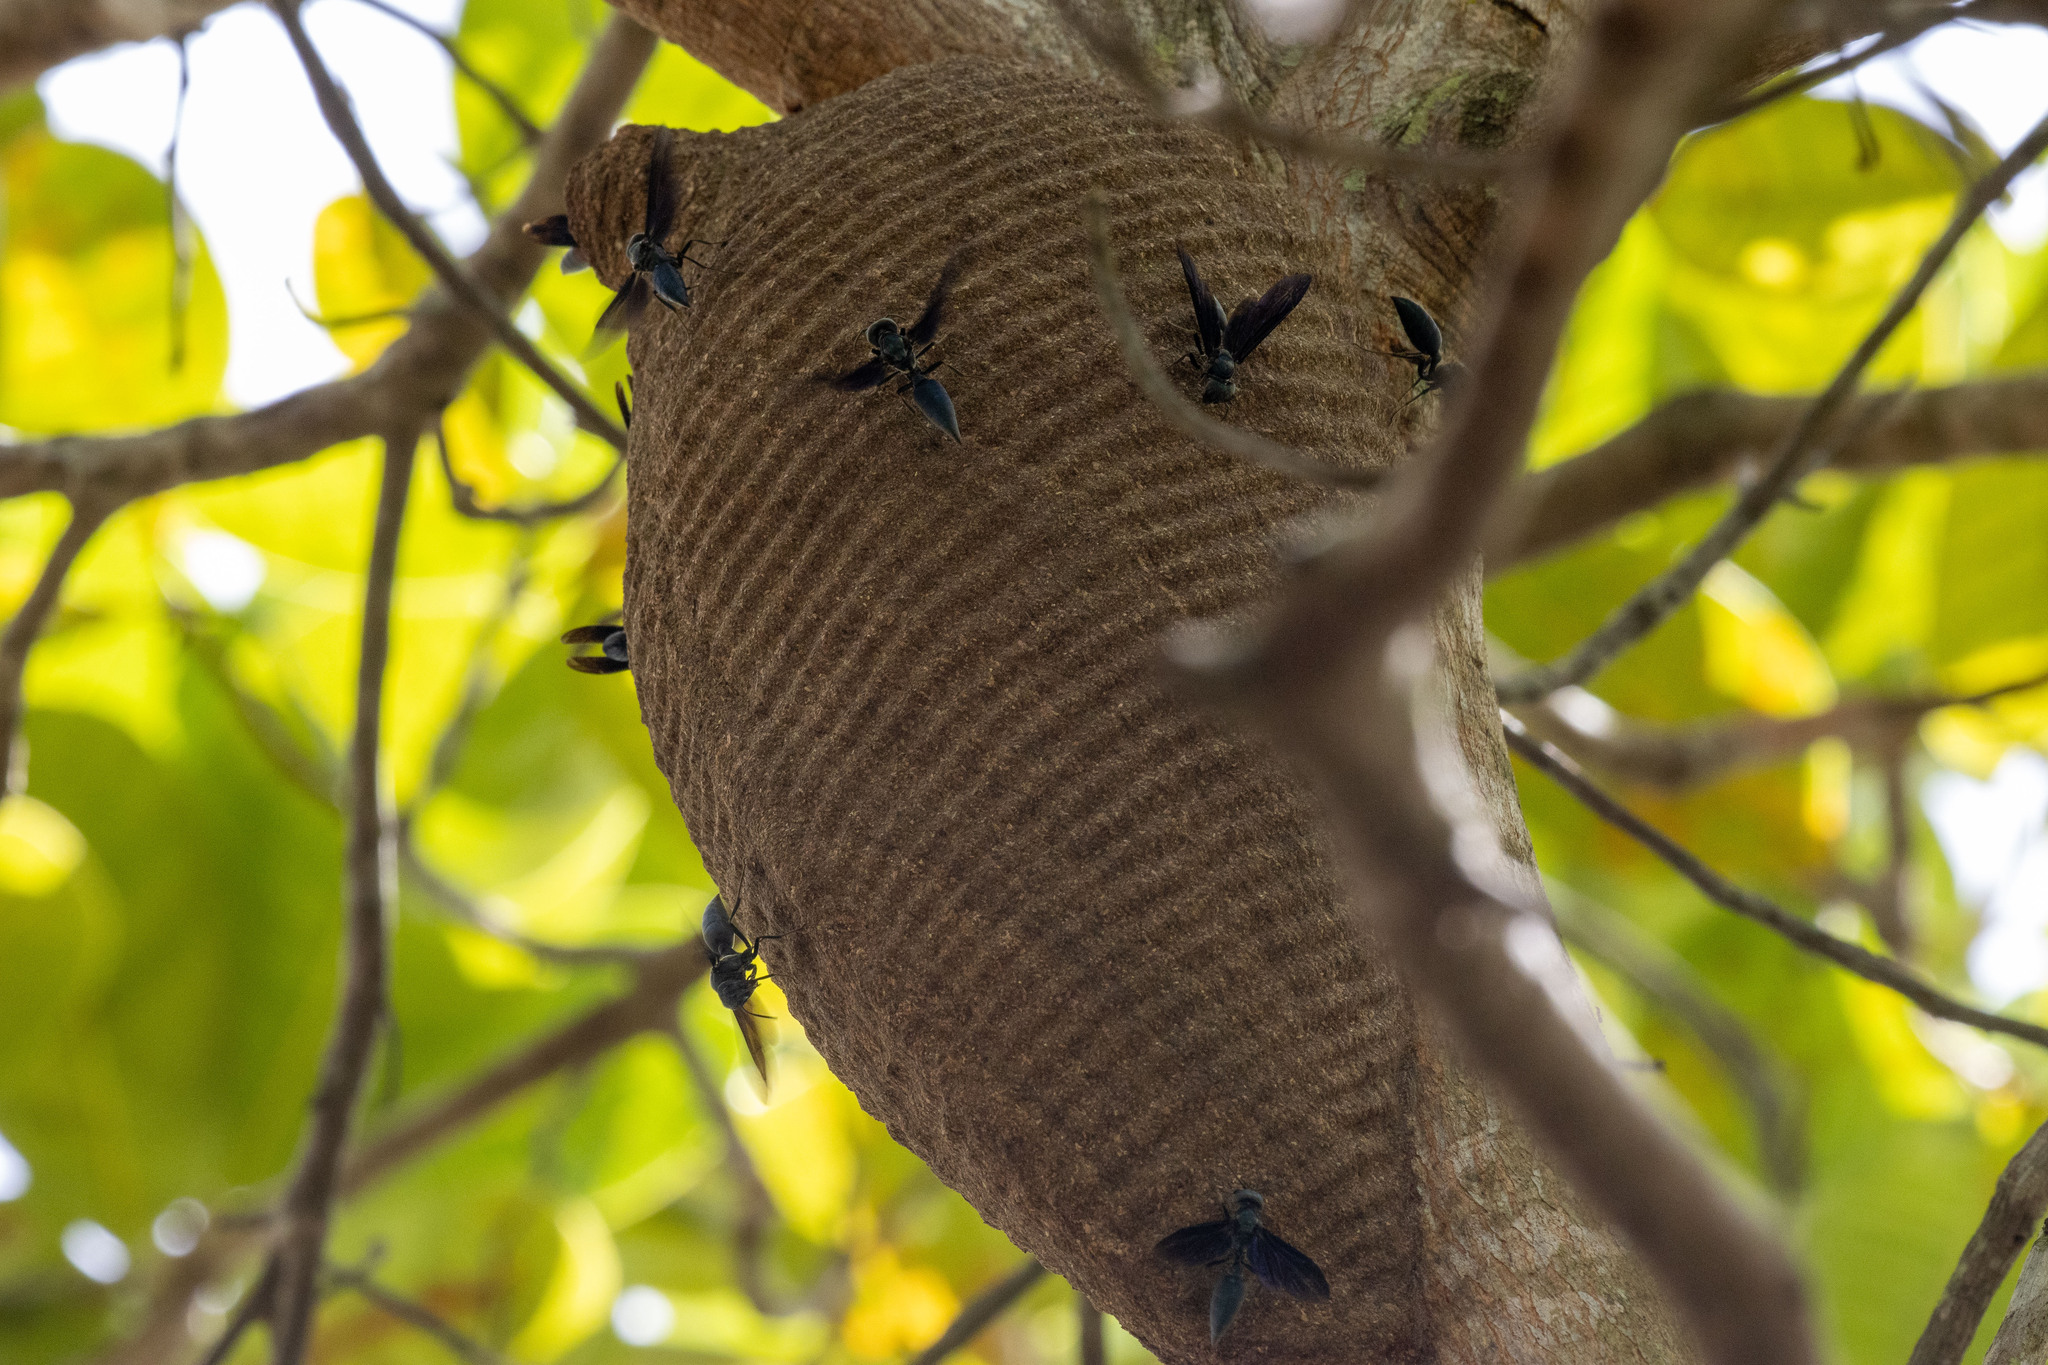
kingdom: Animalia
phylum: Arthropoda
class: Insecta
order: Hymenoptera
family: Vespidae
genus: Synoeca
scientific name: Synoeca ilheensis
